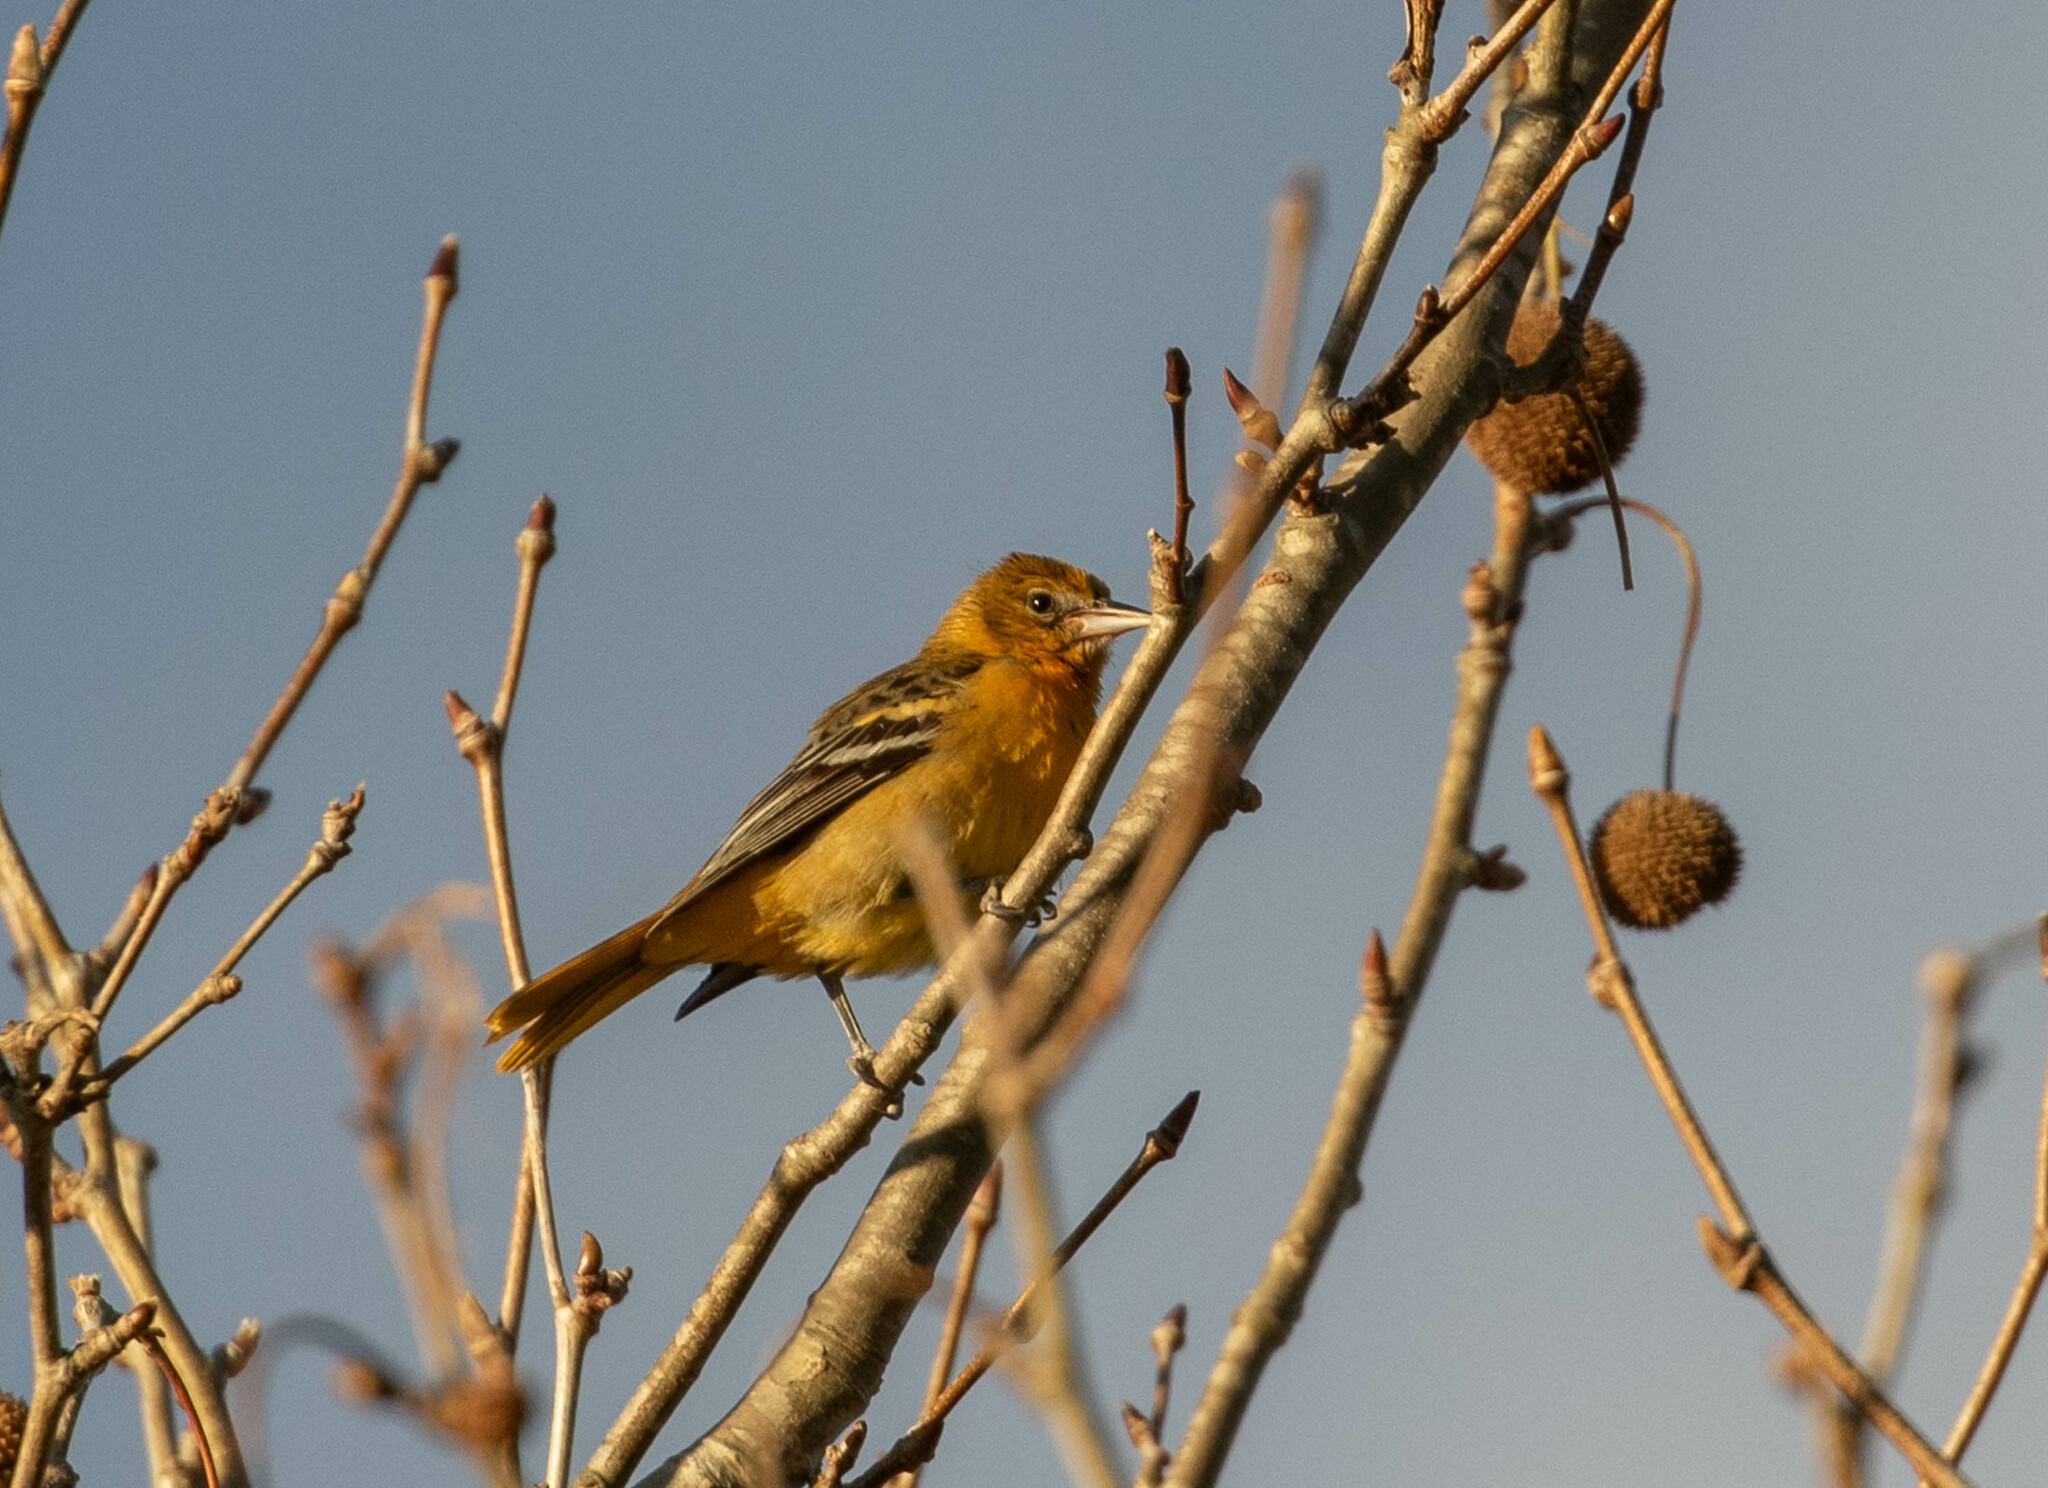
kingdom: Animalia
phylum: Chordata
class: Aves
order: Passeriformes
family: Icteridae
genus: Icterus
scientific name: Icterus galbula
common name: Baltimore oriole
